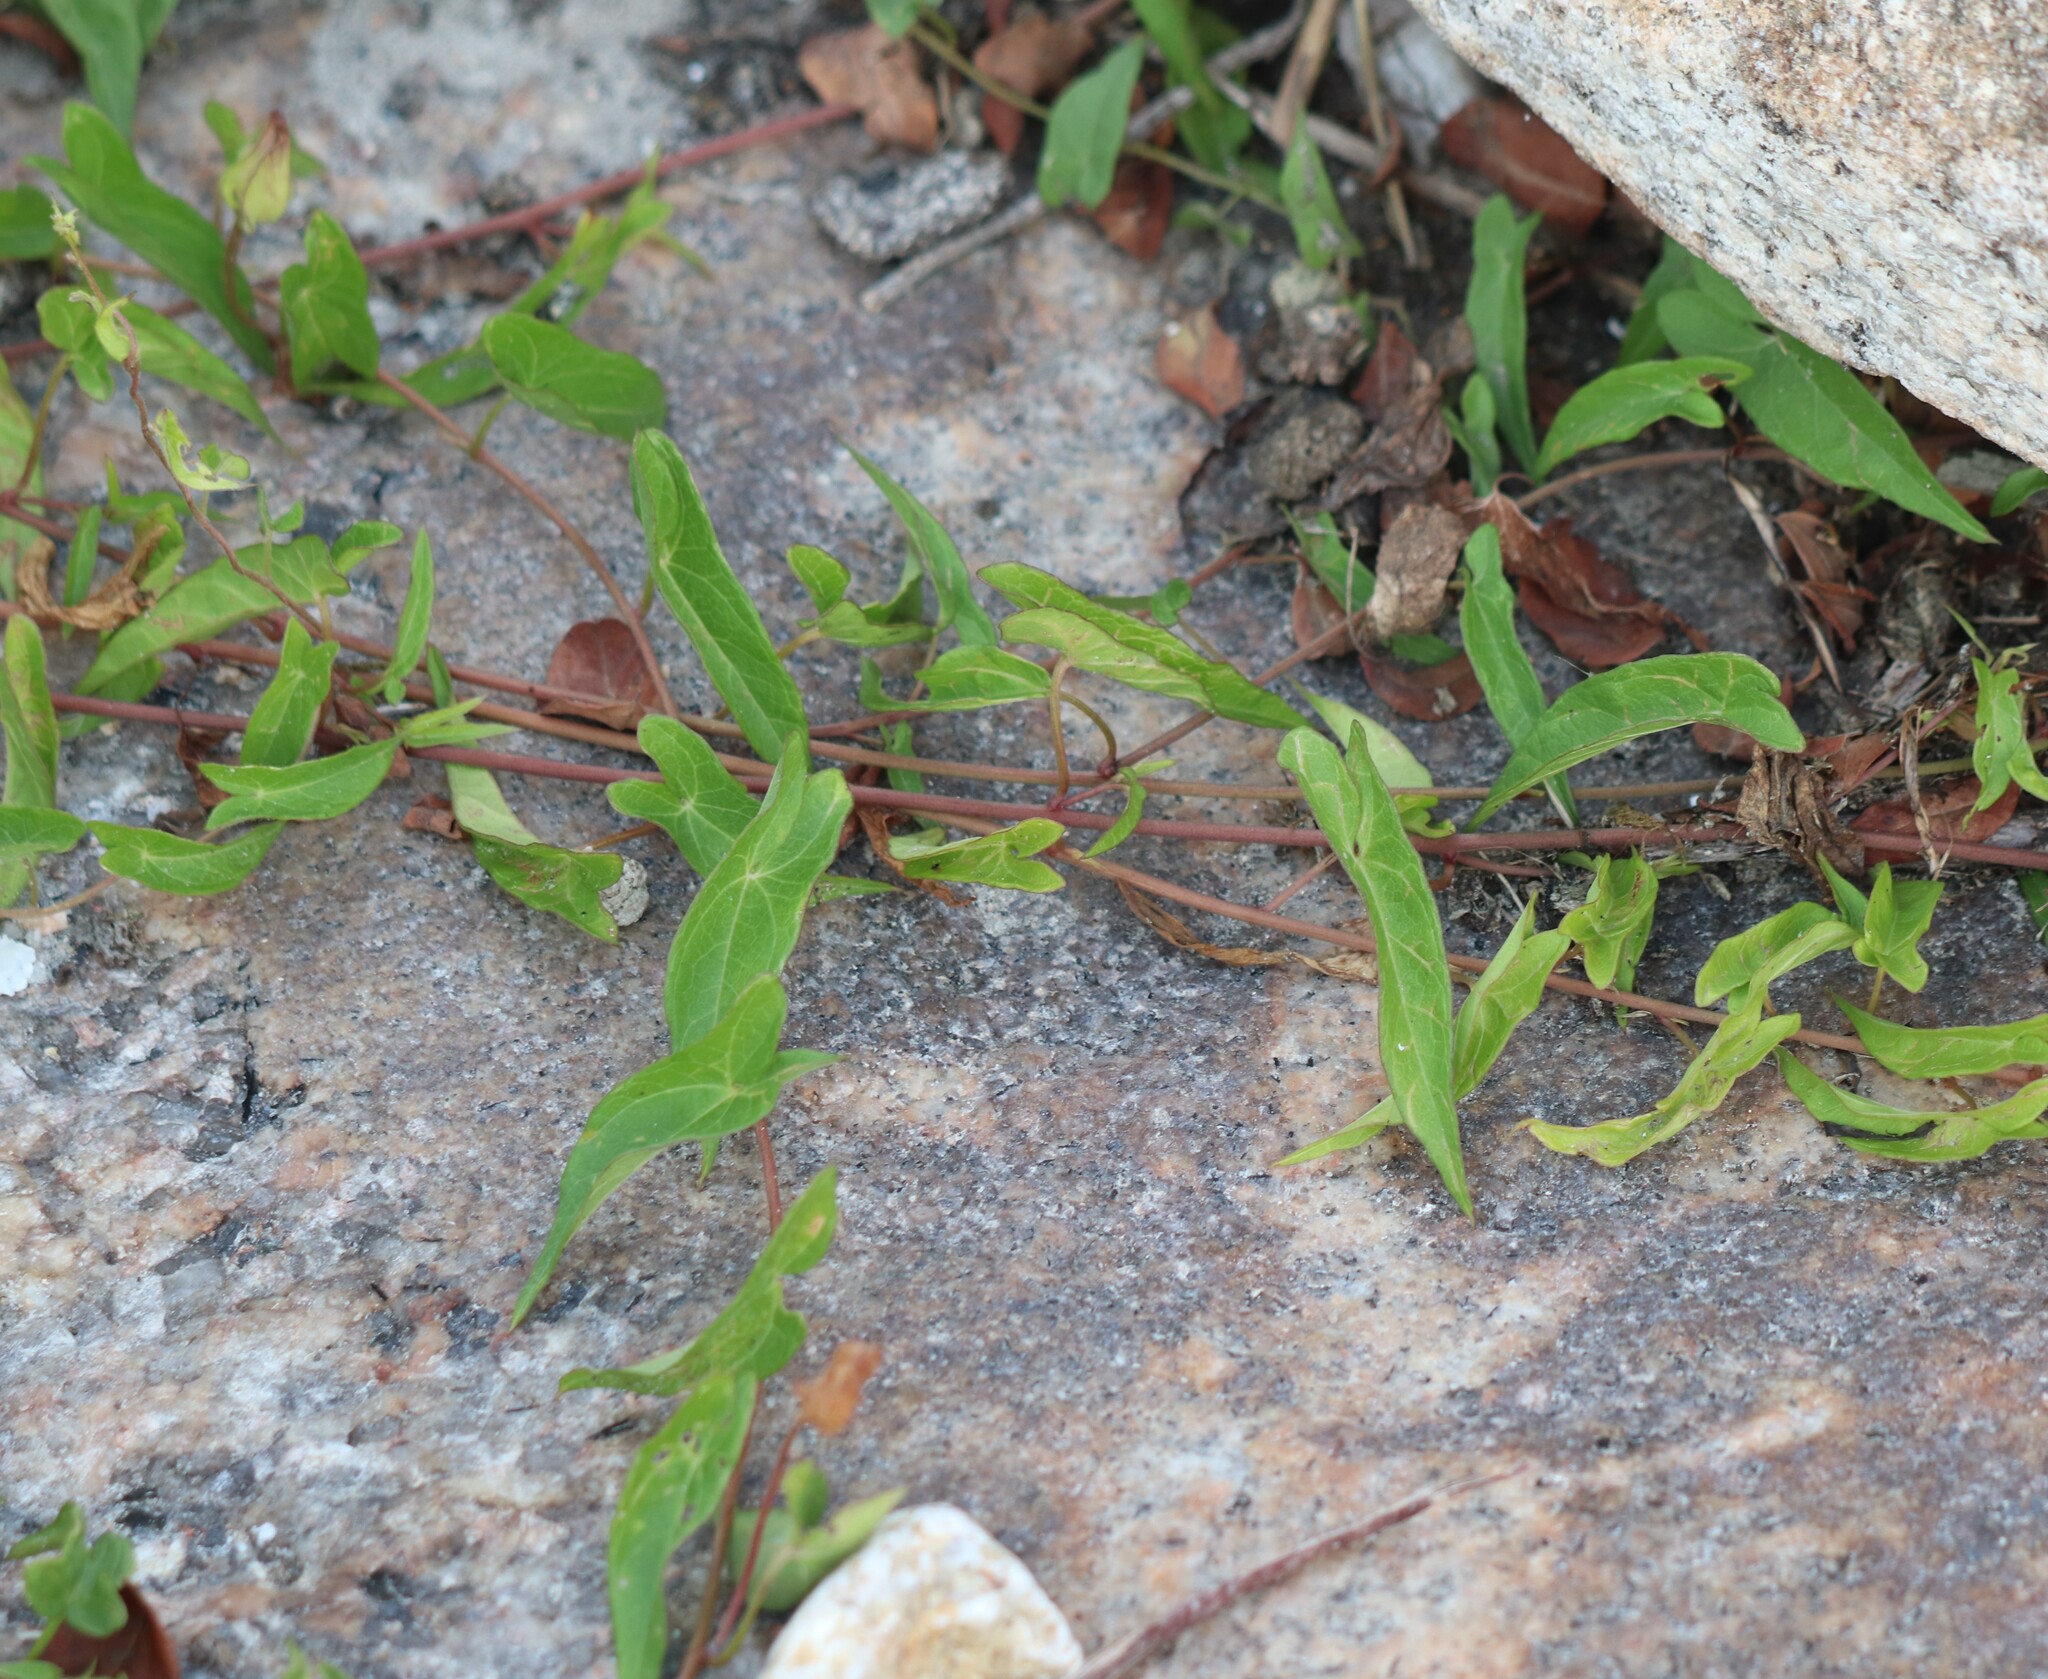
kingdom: Plantae
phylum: Tracheophyta
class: Magnoliopsida
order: Solanales
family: Convolvulaceae
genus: Calystegia
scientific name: Calystegia sepium
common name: Hedge bindweed
